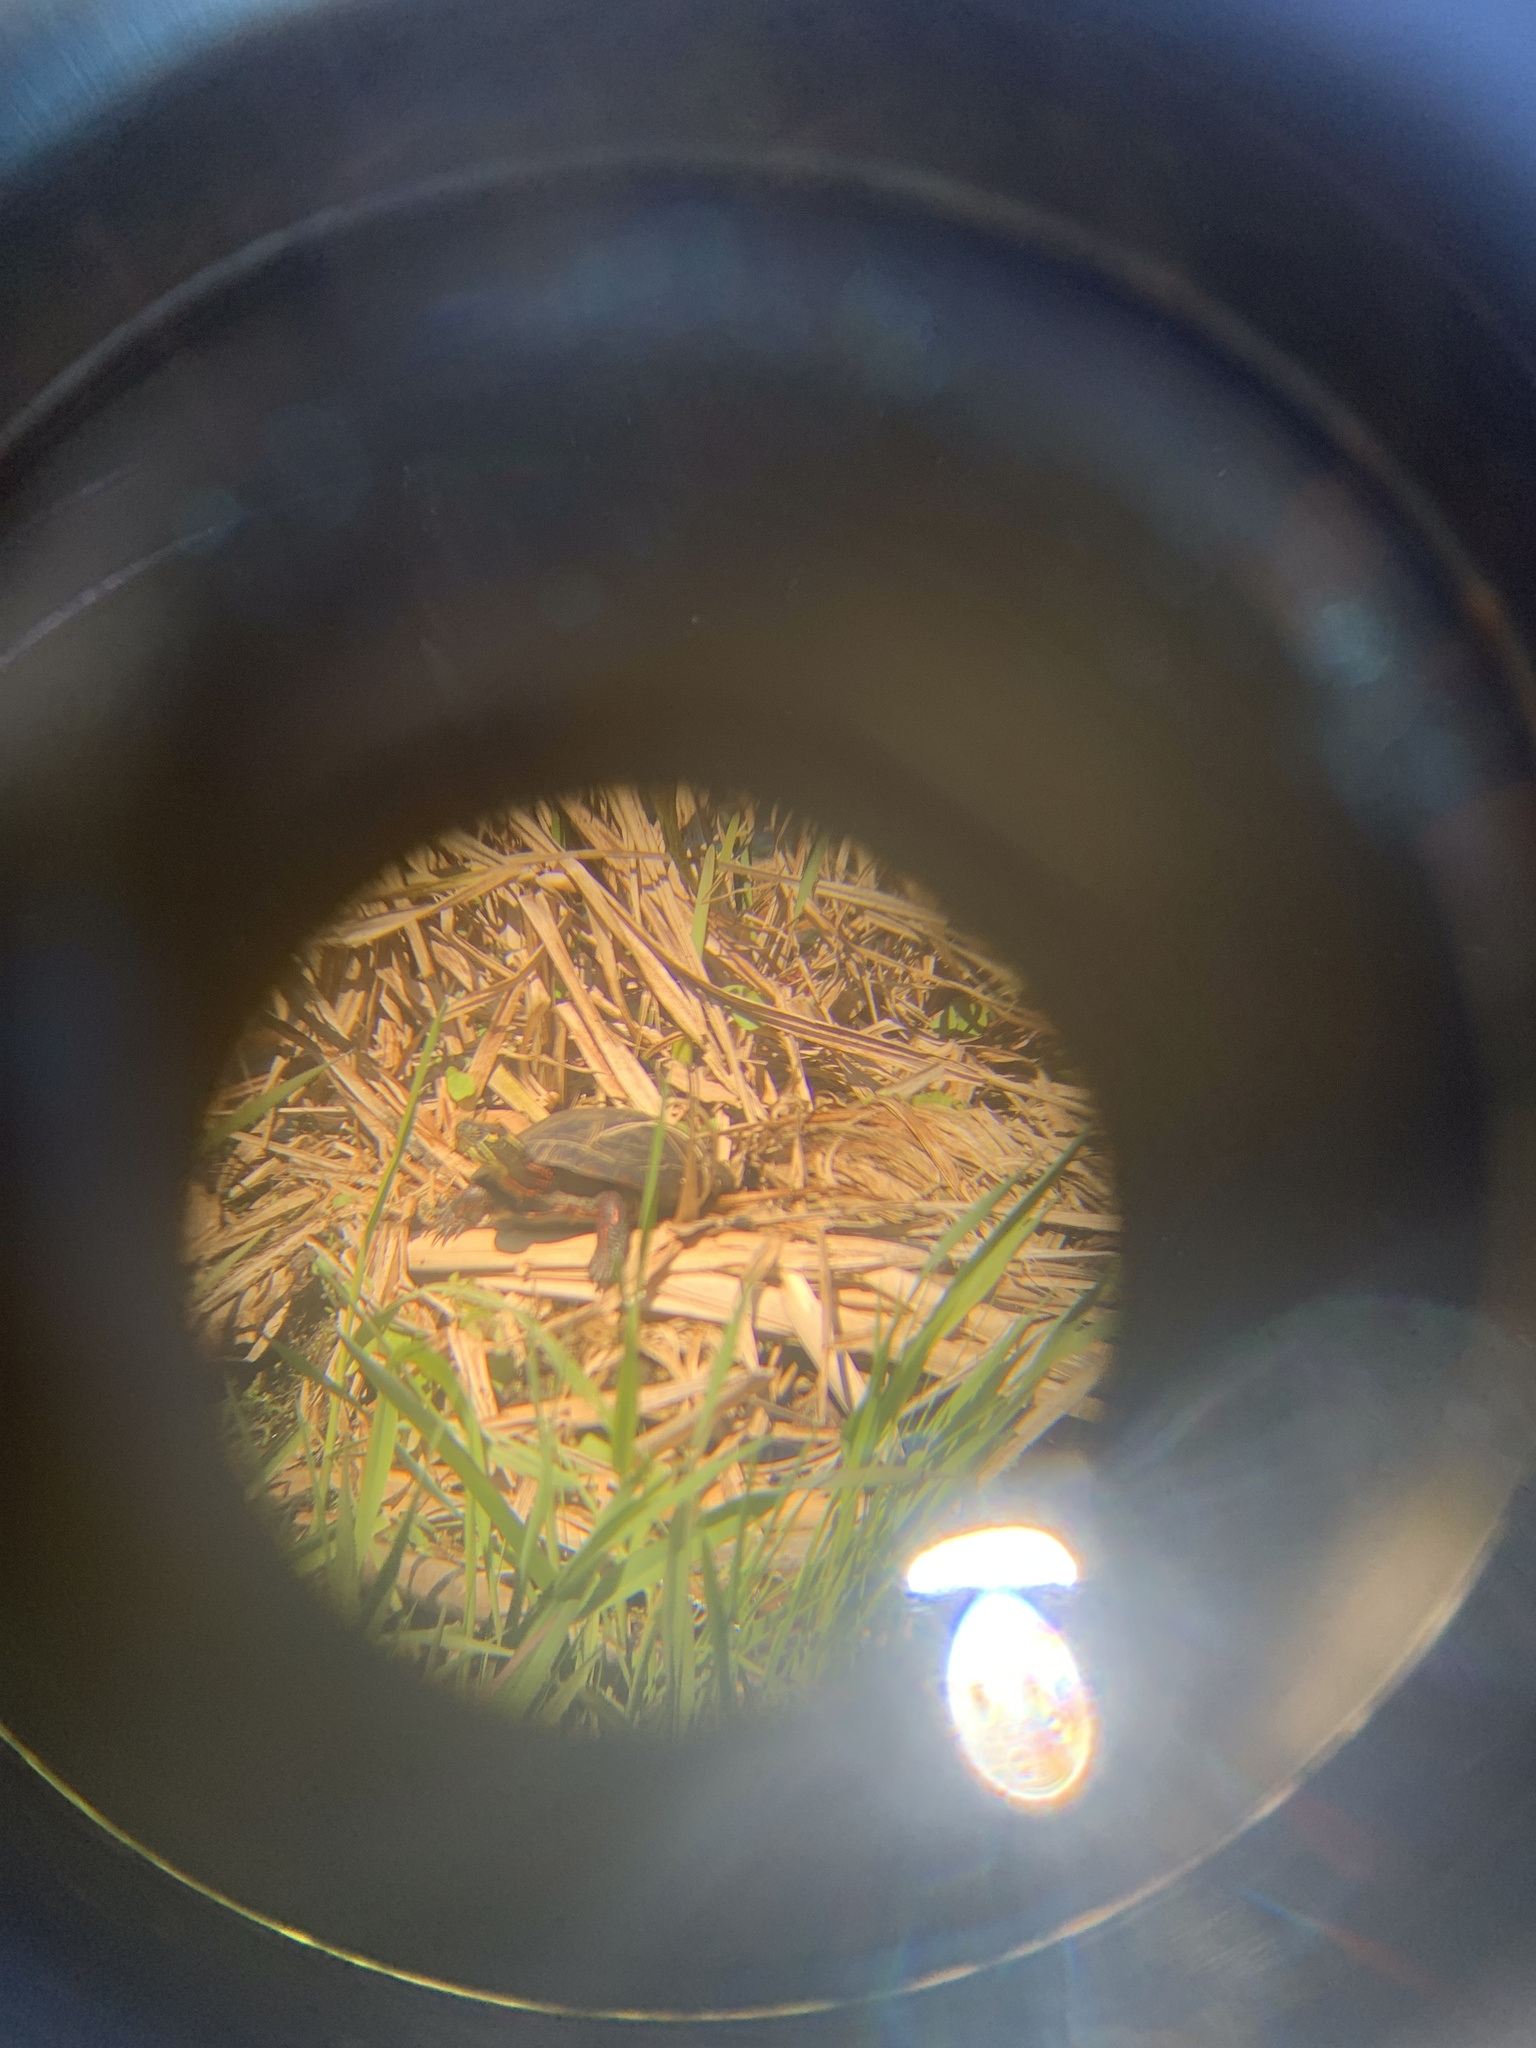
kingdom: Animalia
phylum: Chordata
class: Testudines
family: Emydidae
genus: Chrysemys
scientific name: Chrysemys picta
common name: Painted turtle
